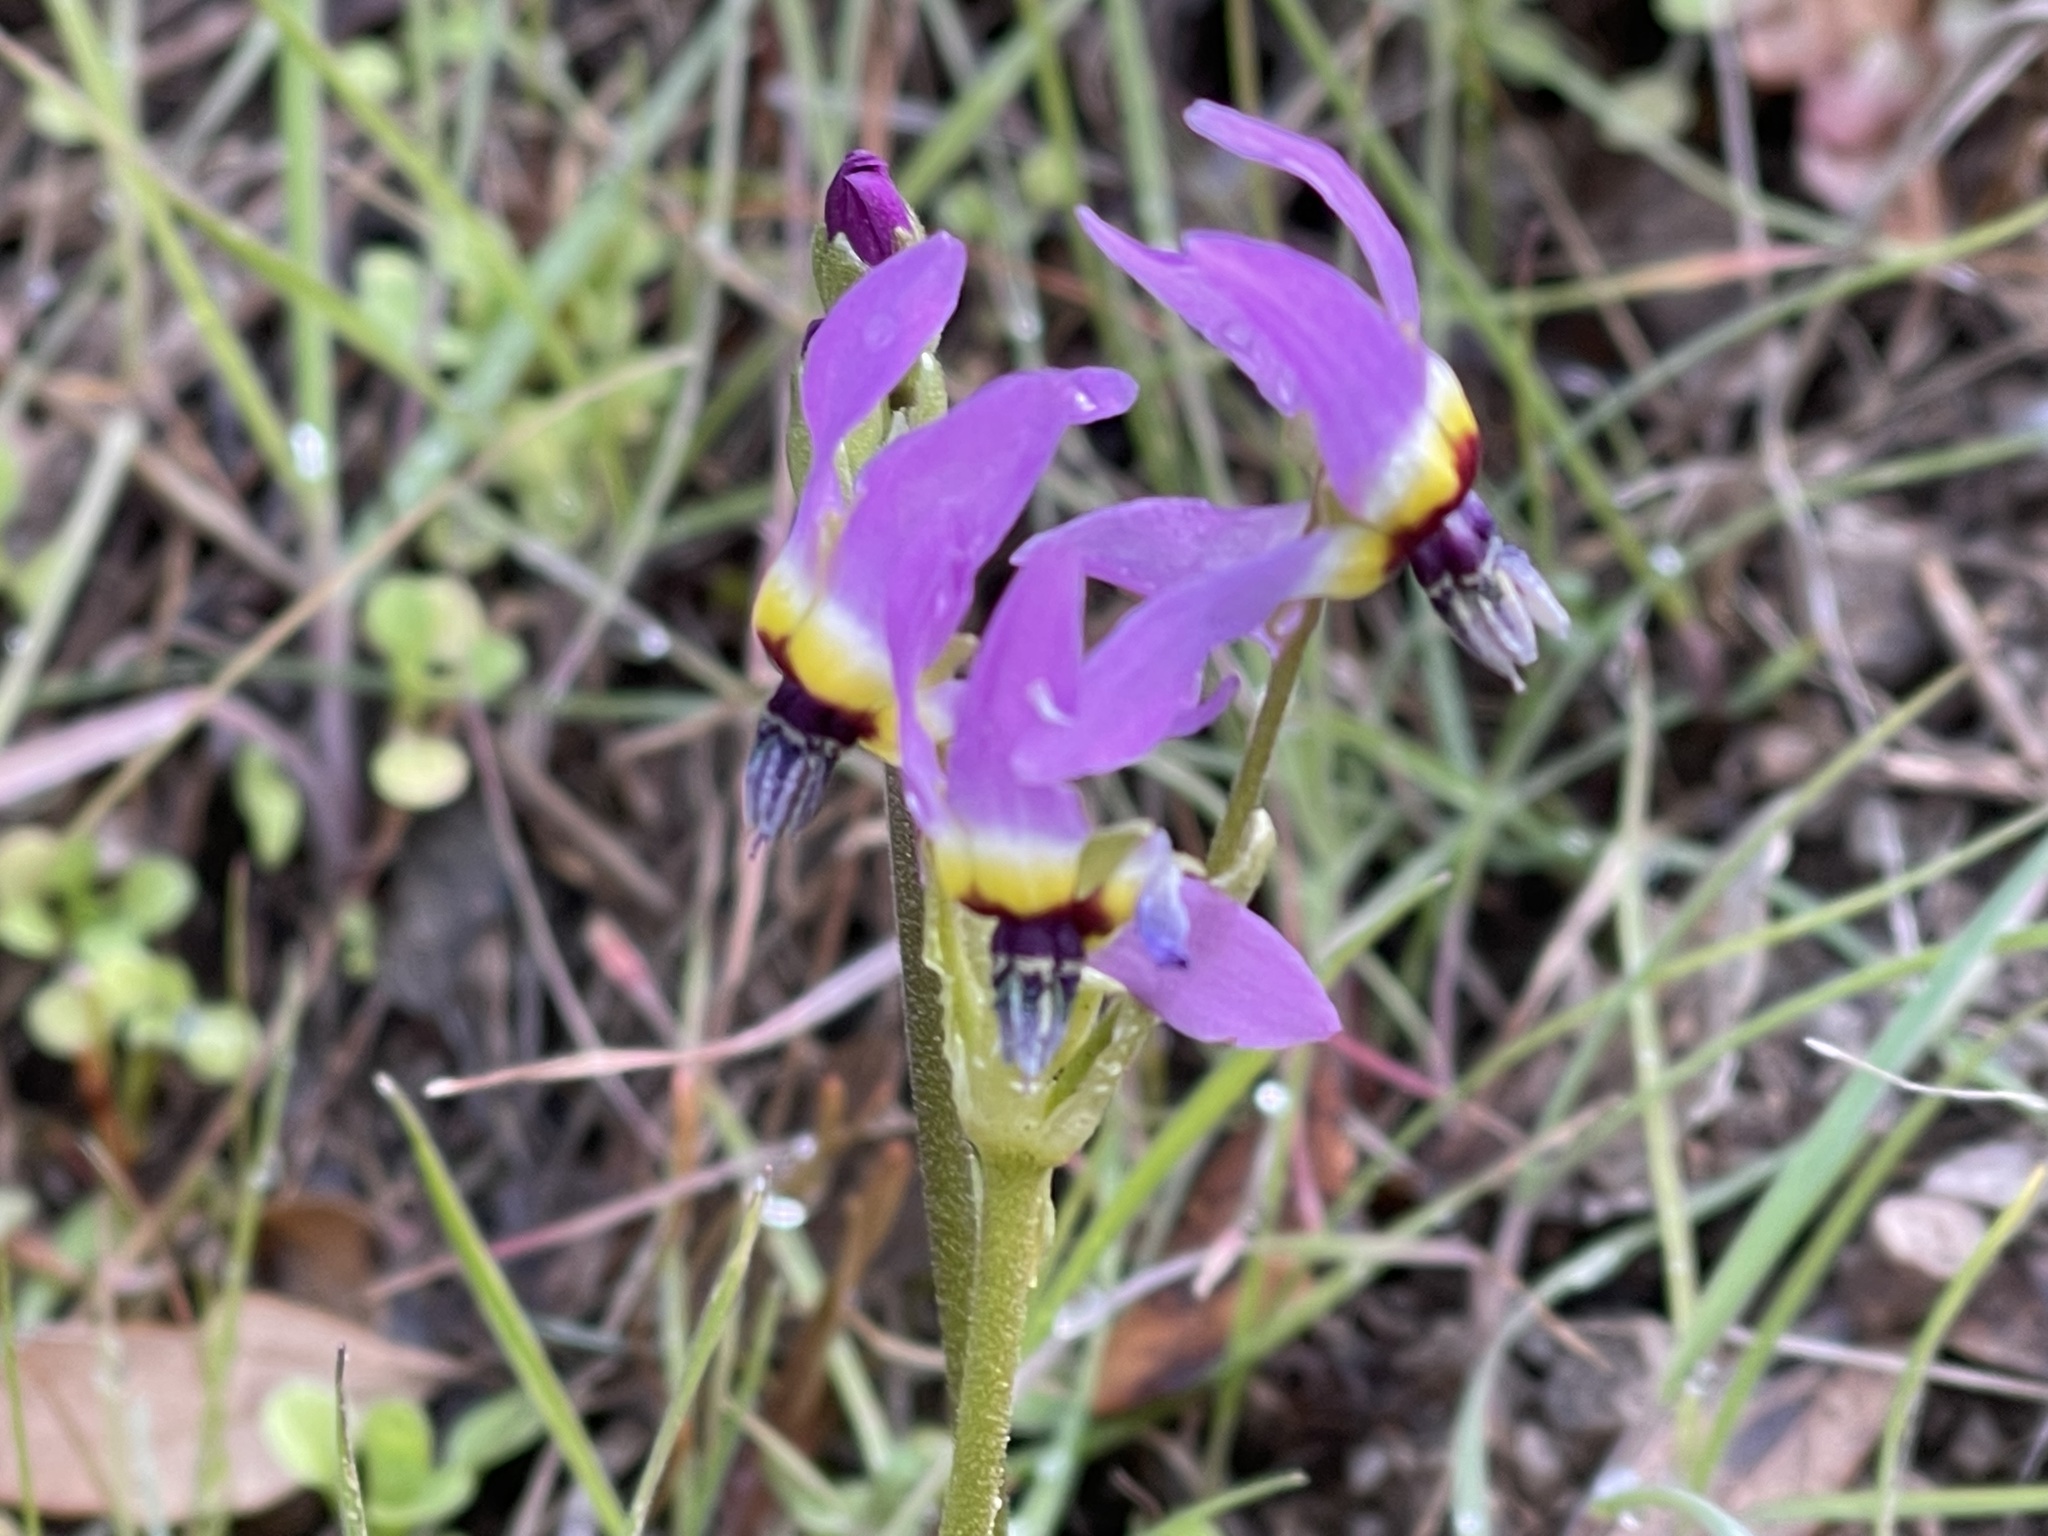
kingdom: Plantae
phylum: Tracheophyta
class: Magnoliopsida
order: Ericales
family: Primulaceae
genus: Dodecatheon
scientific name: Dodecatheon clevelandii
